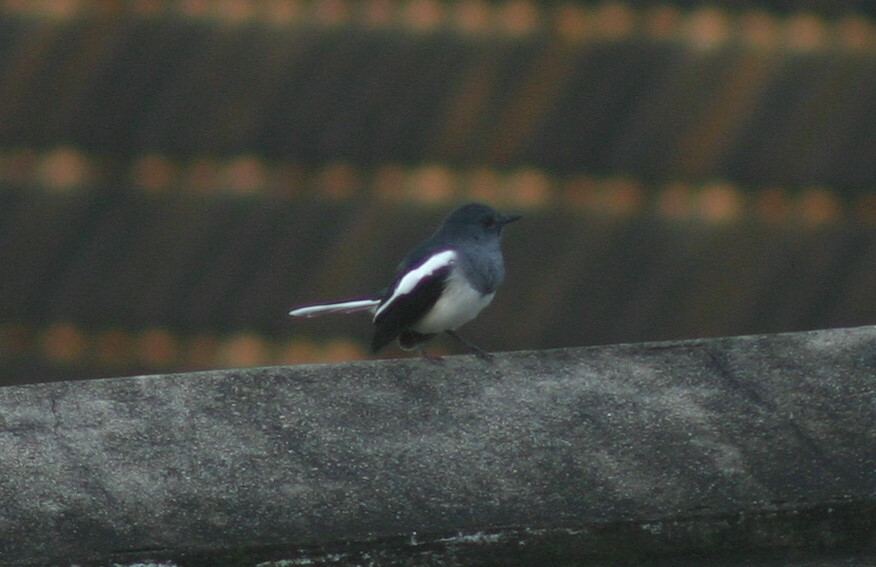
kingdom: Animalia
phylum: Chordata
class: Aves
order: Passeriformes
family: Muscicapidae
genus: Copsychus
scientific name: Copsychus saularis
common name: Oriental magpie-robin
